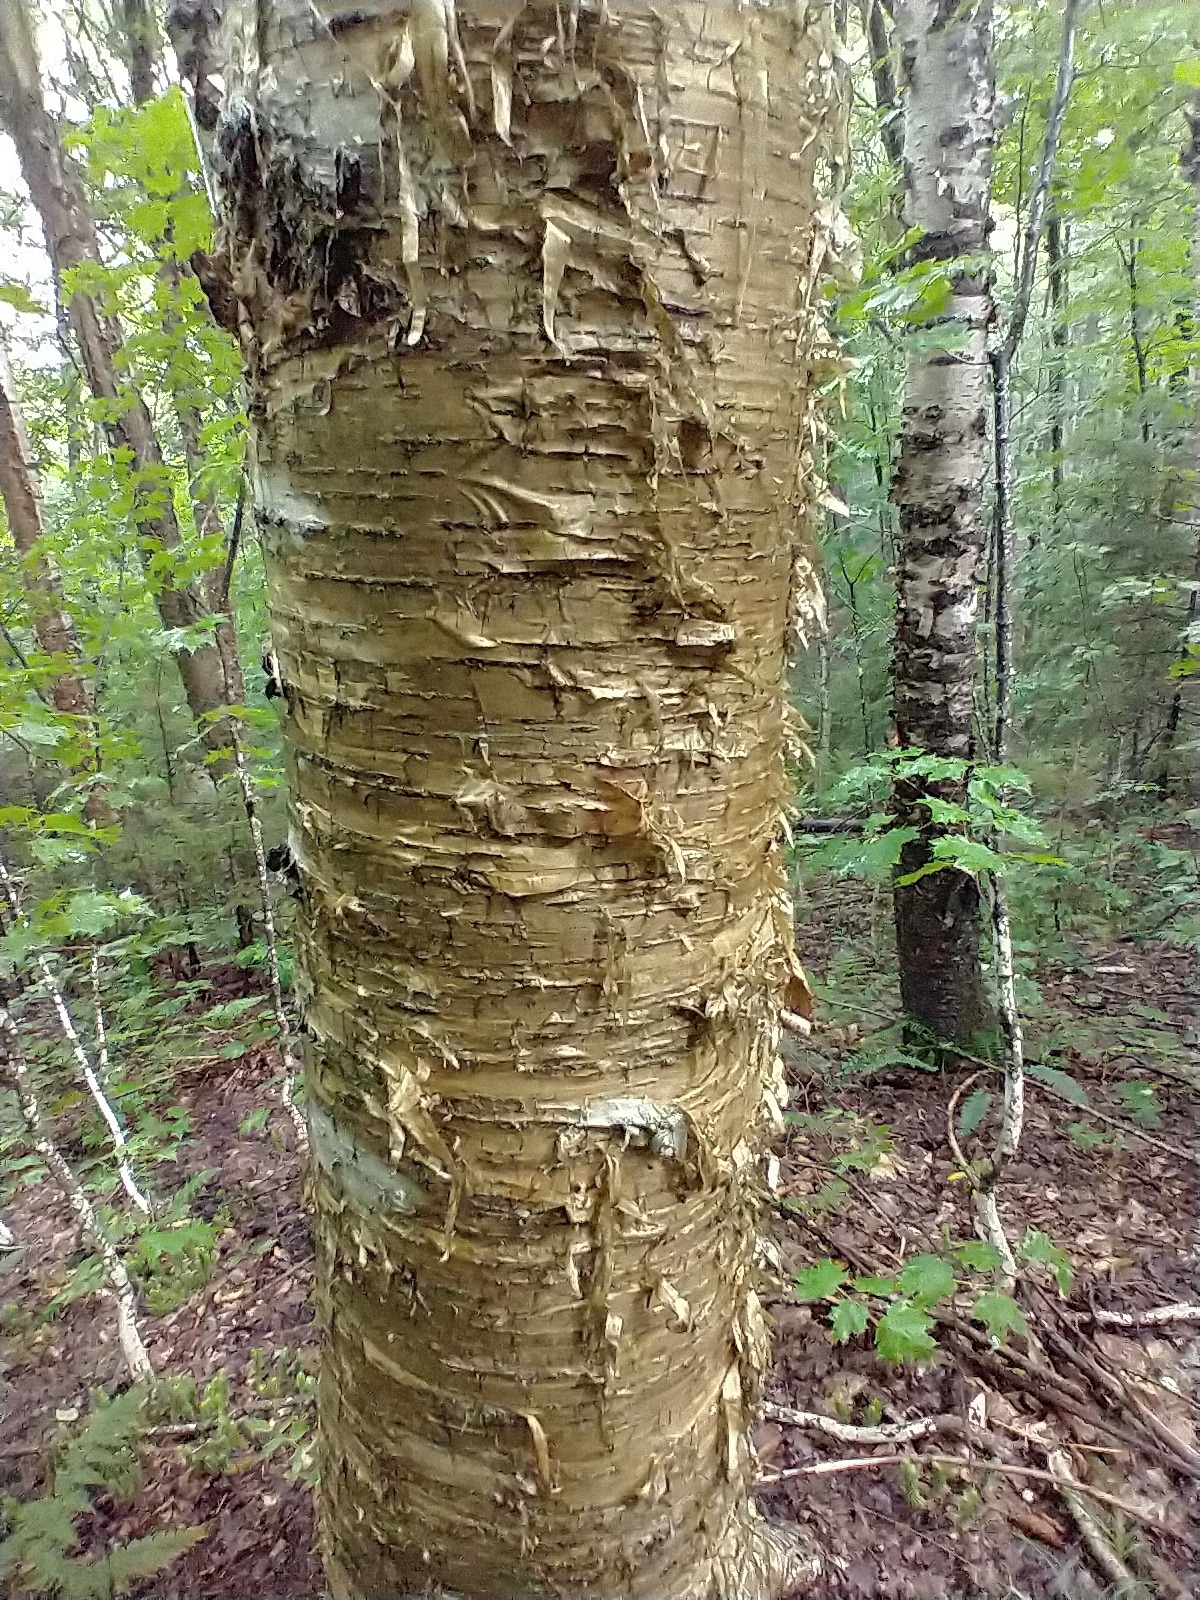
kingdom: Plantae
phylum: Tracheophyta
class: Magnoliopsida
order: Fagales
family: Betulaceae
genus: Betula
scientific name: Betula alleghaniensis
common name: Yellow birch
